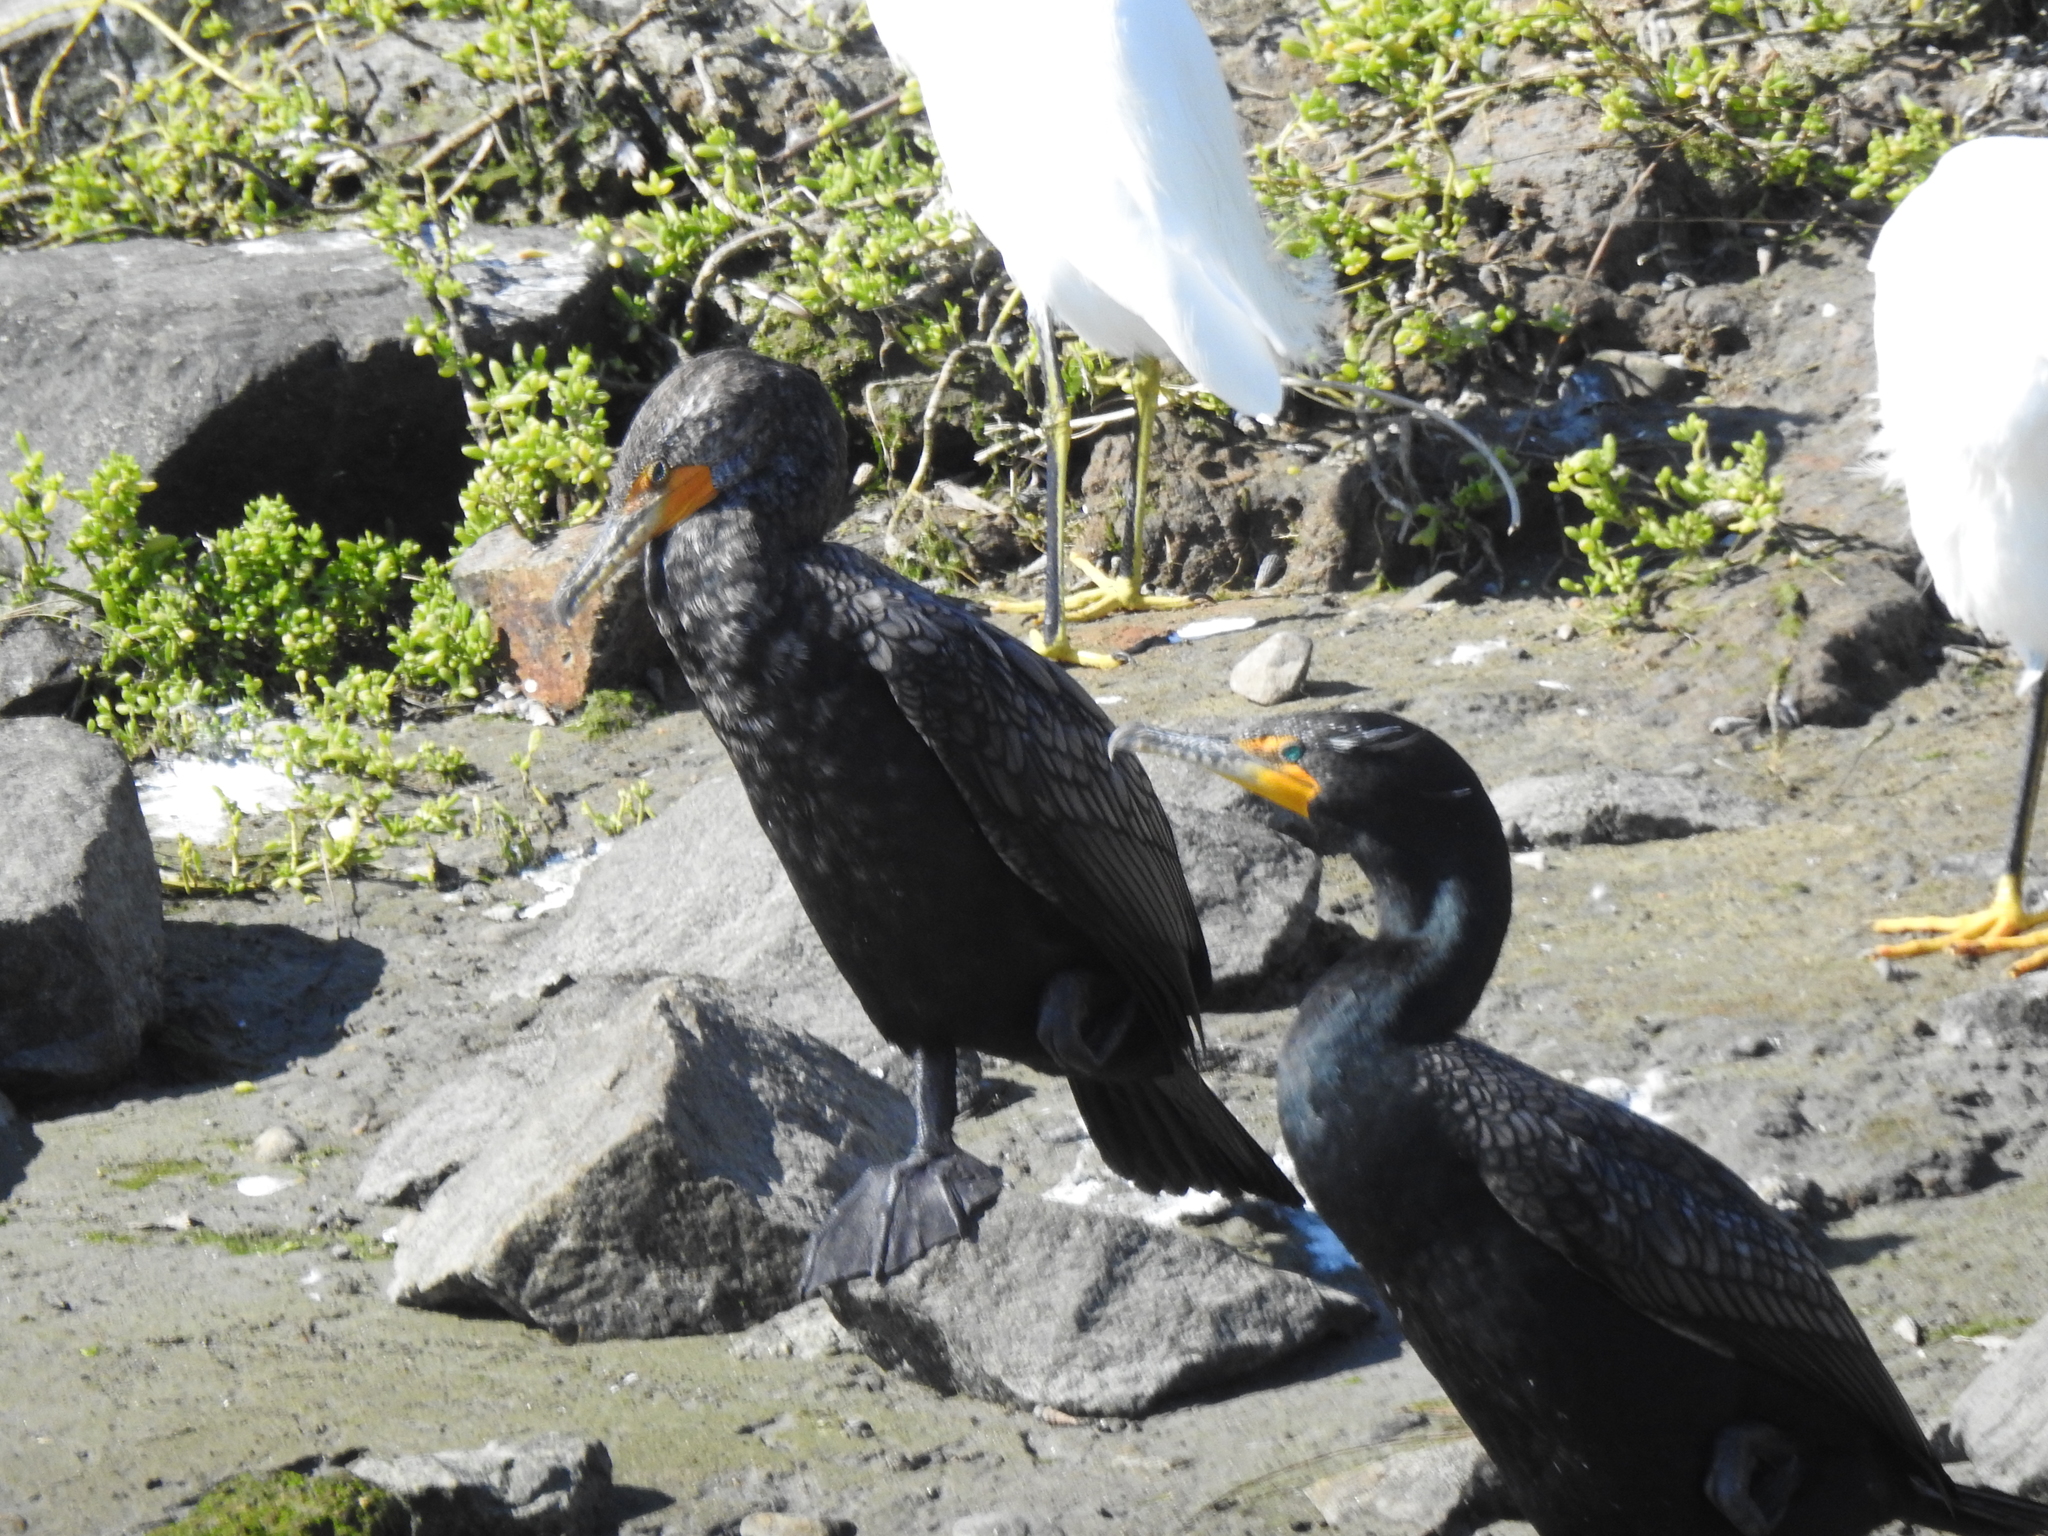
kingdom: Animalia
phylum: Chordata
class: Aves
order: Suliformes
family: Phalacrocoracidae
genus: Phalacrocorax
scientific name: Phalacrocorax auritus
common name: Double-crested cormorant
